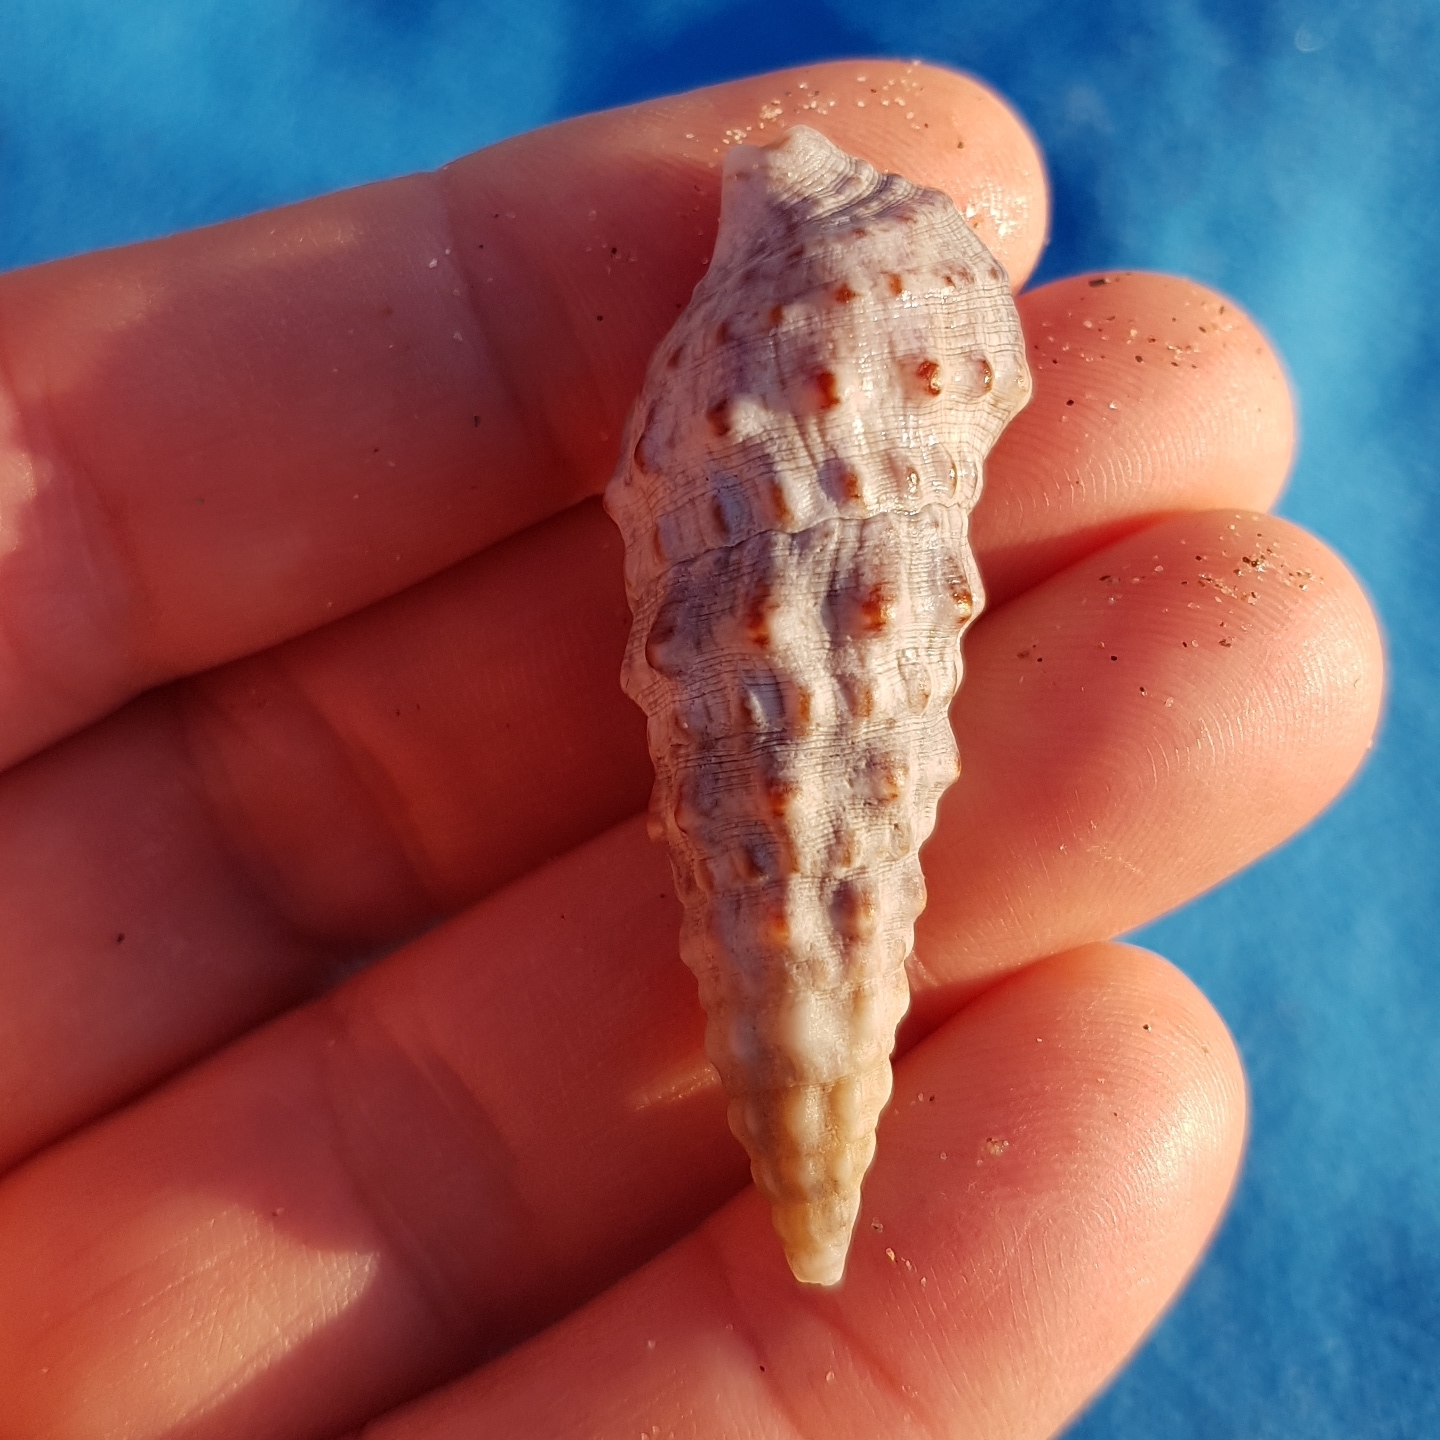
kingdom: Animalia
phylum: Mollusca
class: Gastropoda
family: Cerithiidae
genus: Cerithium
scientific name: Cerithium vulgatum
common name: European cerith
